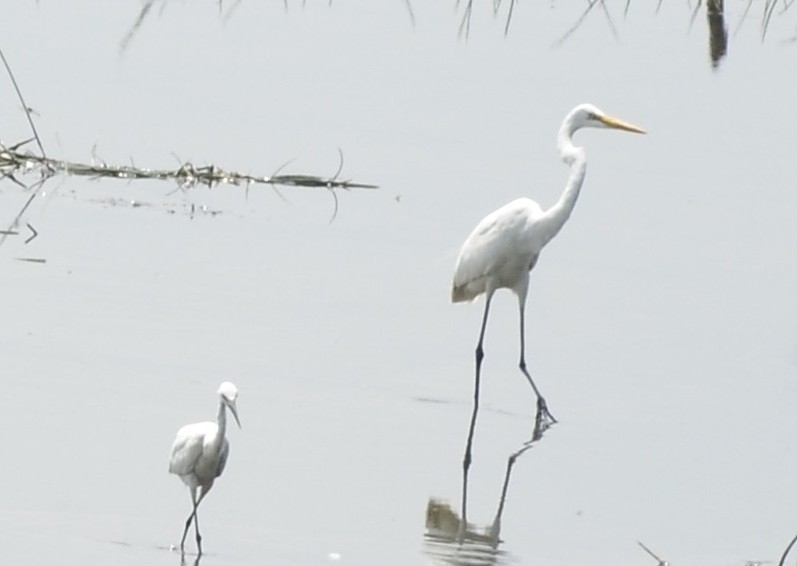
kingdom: Animalia
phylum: Chordata
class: Aves
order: Pelecaniformes
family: Ardeidae
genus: Ardea
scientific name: Ardea alba
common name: Great egret
